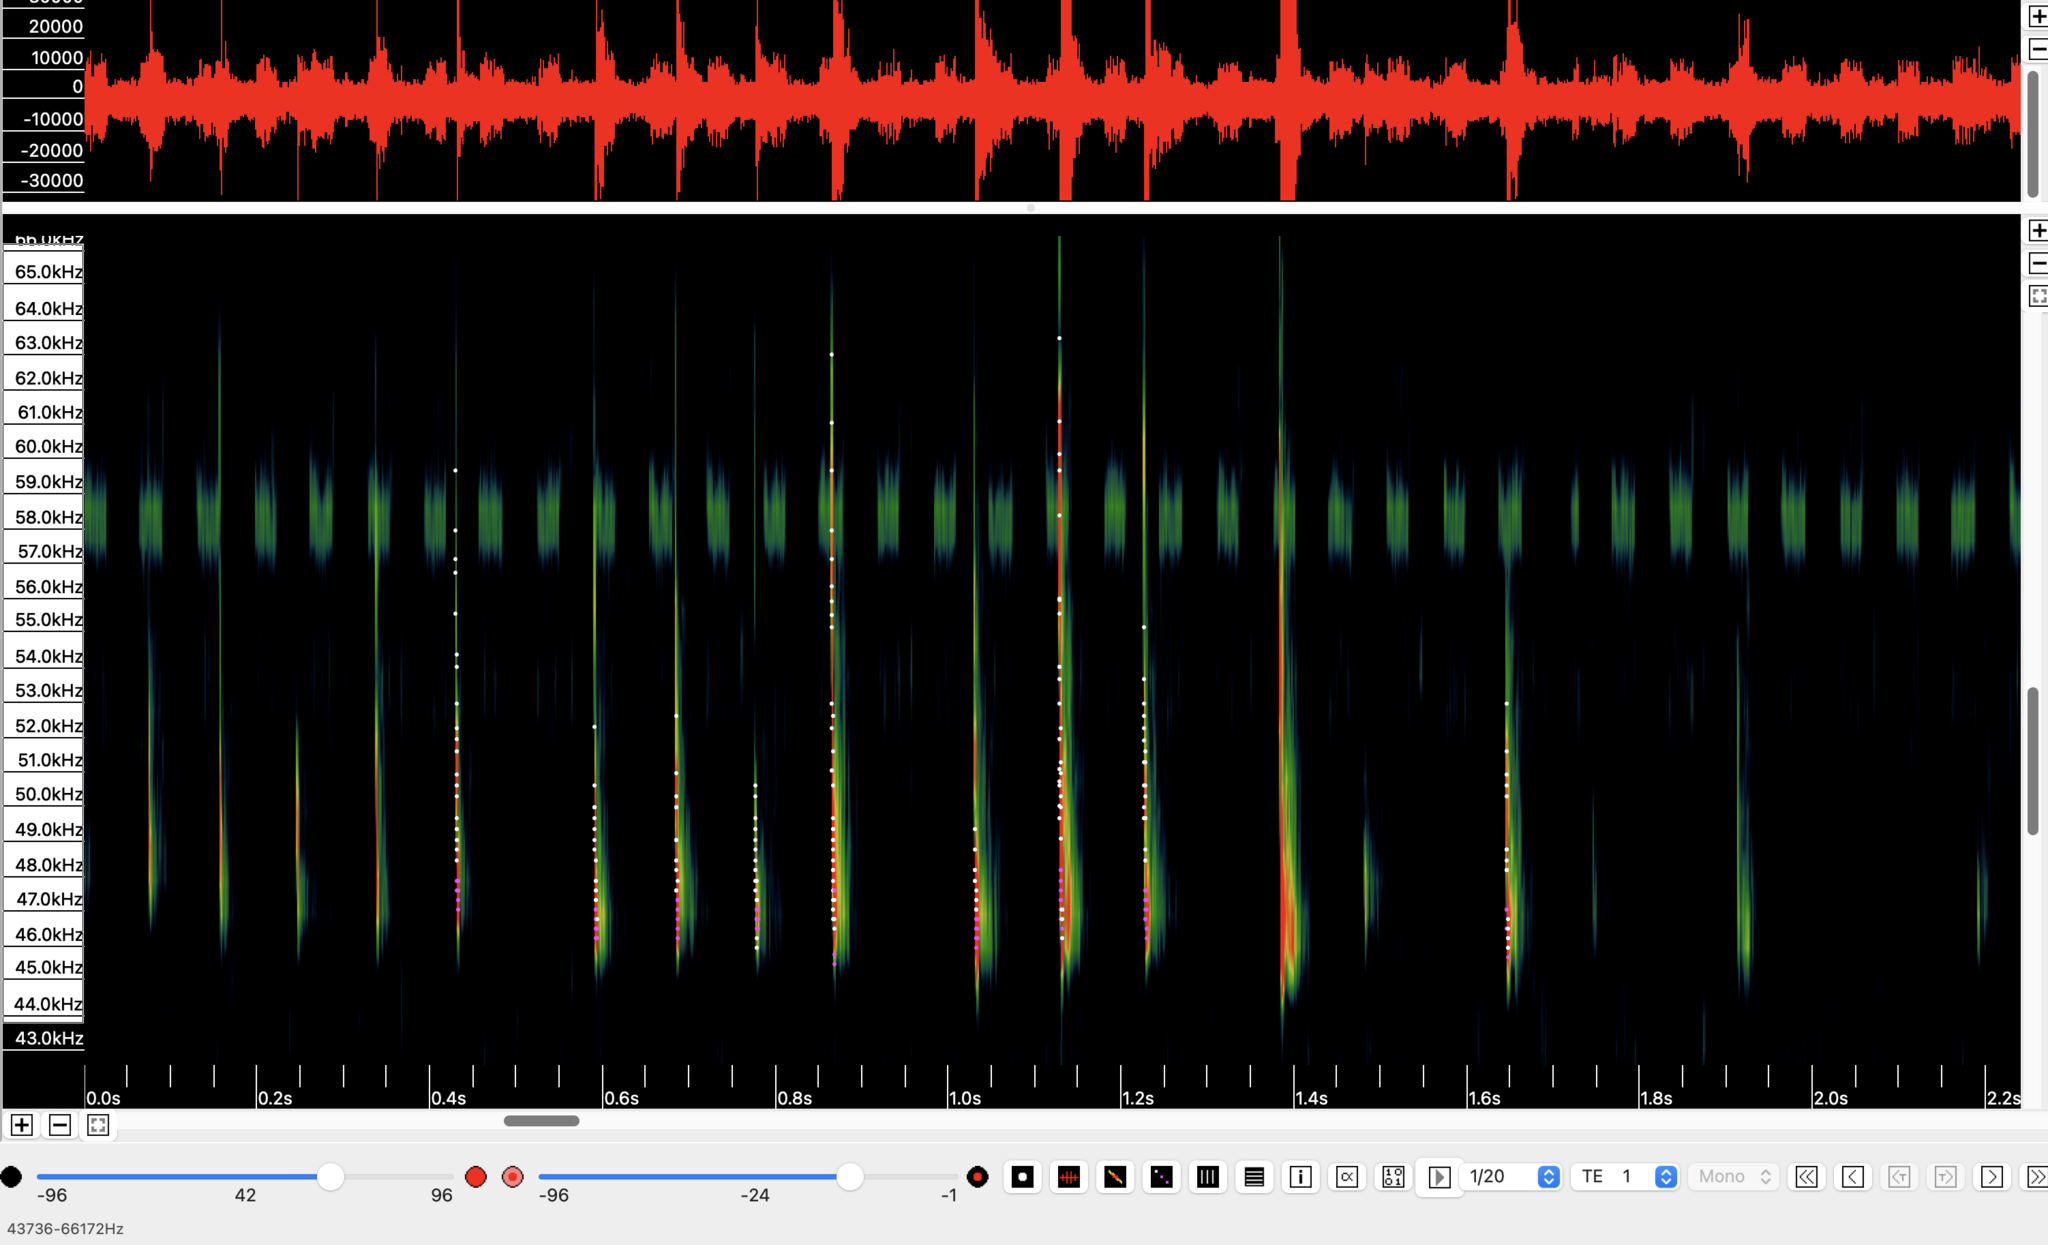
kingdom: Animalia
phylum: Chordata
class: Mammalia
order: Chiroptera
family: Vespertilionidae
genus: Pipistrellus
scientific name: Pipistrellus pipistrellus
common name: Common pipistrelle
